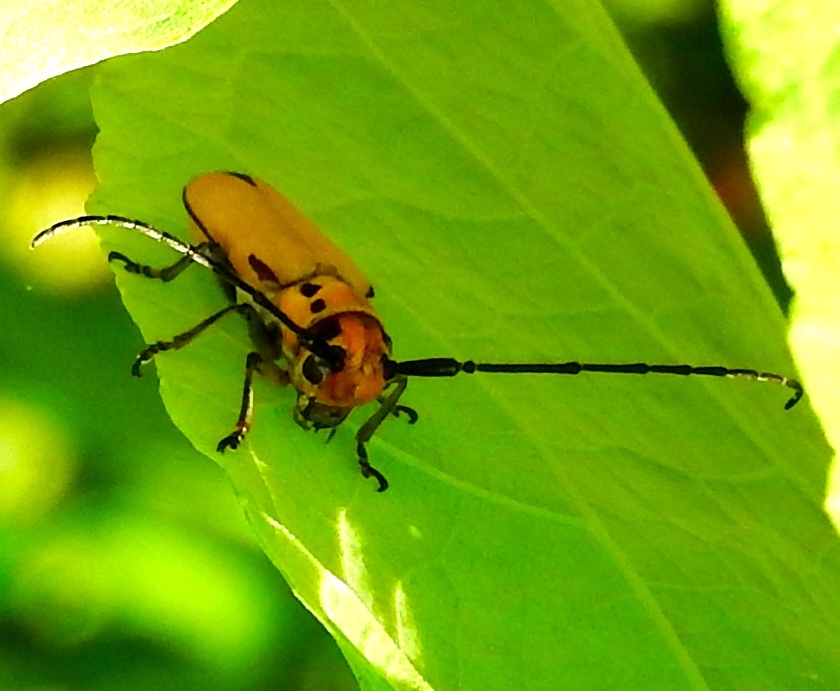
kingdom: Animalia
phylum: Arthropoda
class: Insecta
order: Coleoptera
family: Cerambycidae
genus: Essostrutha
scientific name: Essostrutha laeta
